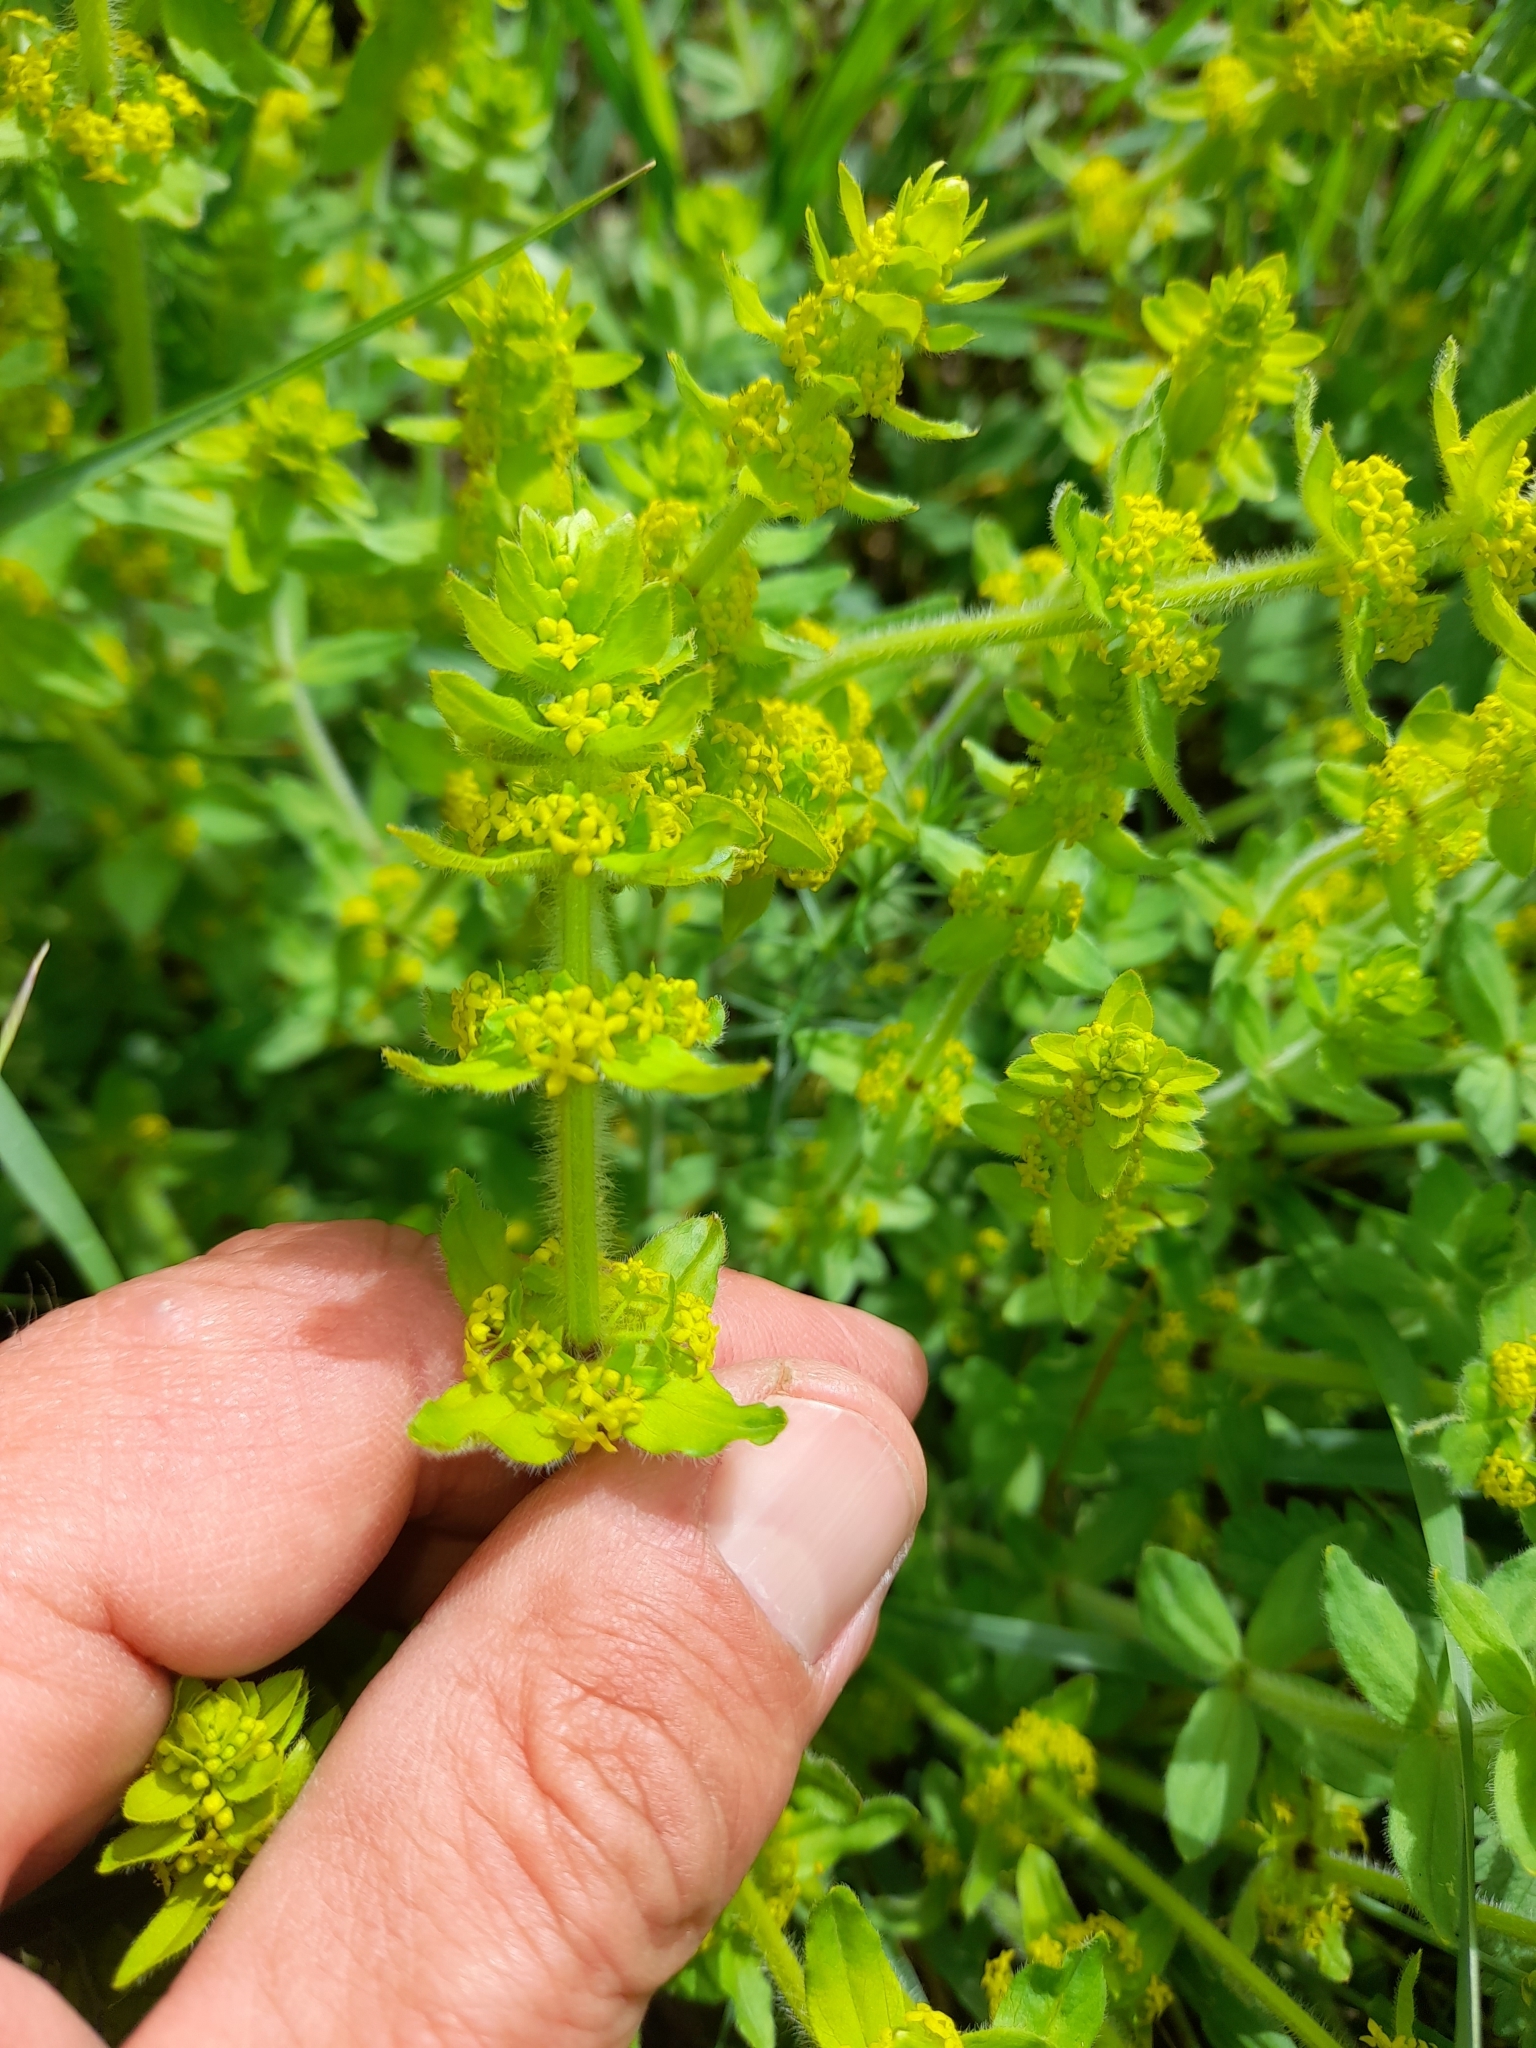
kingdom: Plantae
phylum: Tracheophyta
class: Magnoliopsida
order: Gentianales
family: Rubiaceae
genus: Cruciata
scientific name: Cruciata laevipes
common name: Crosswort
